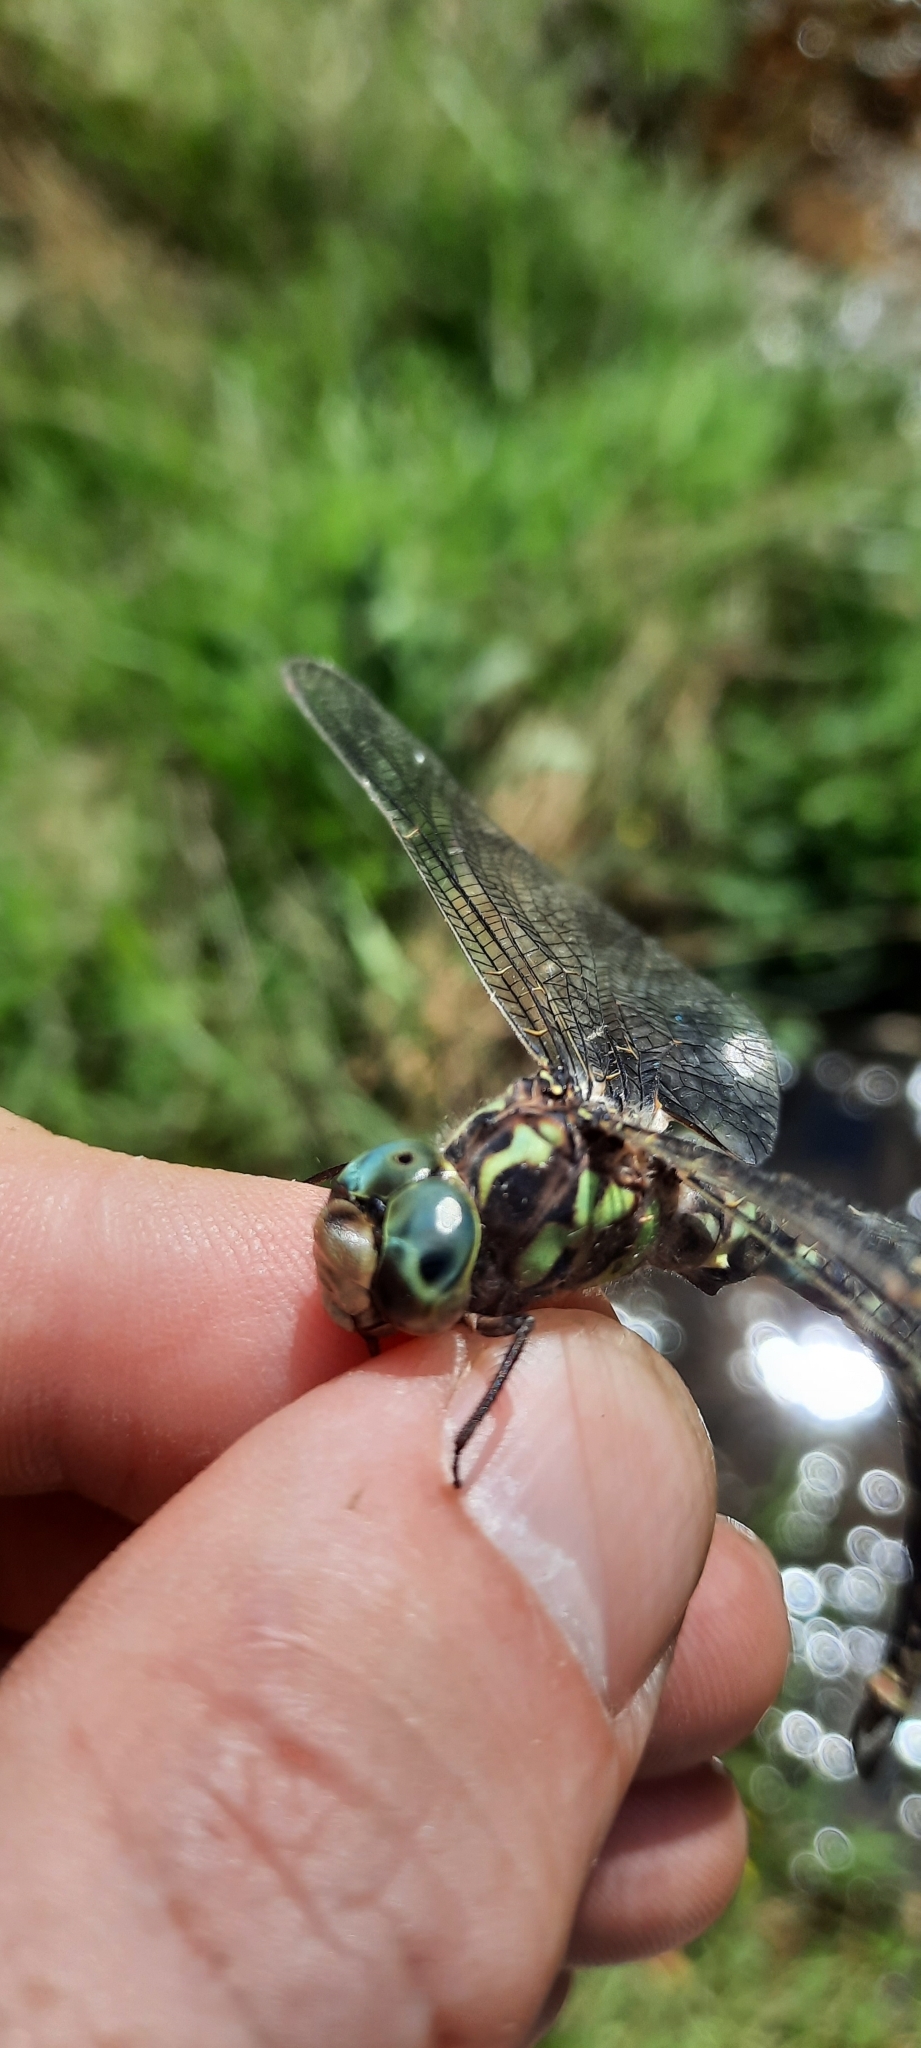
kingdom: Animalia
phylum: Arthropoda
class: Insecta
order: Odonata
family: Aeshnidae
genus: Boyeria
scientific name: Boyeria irene
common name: Western spectre
